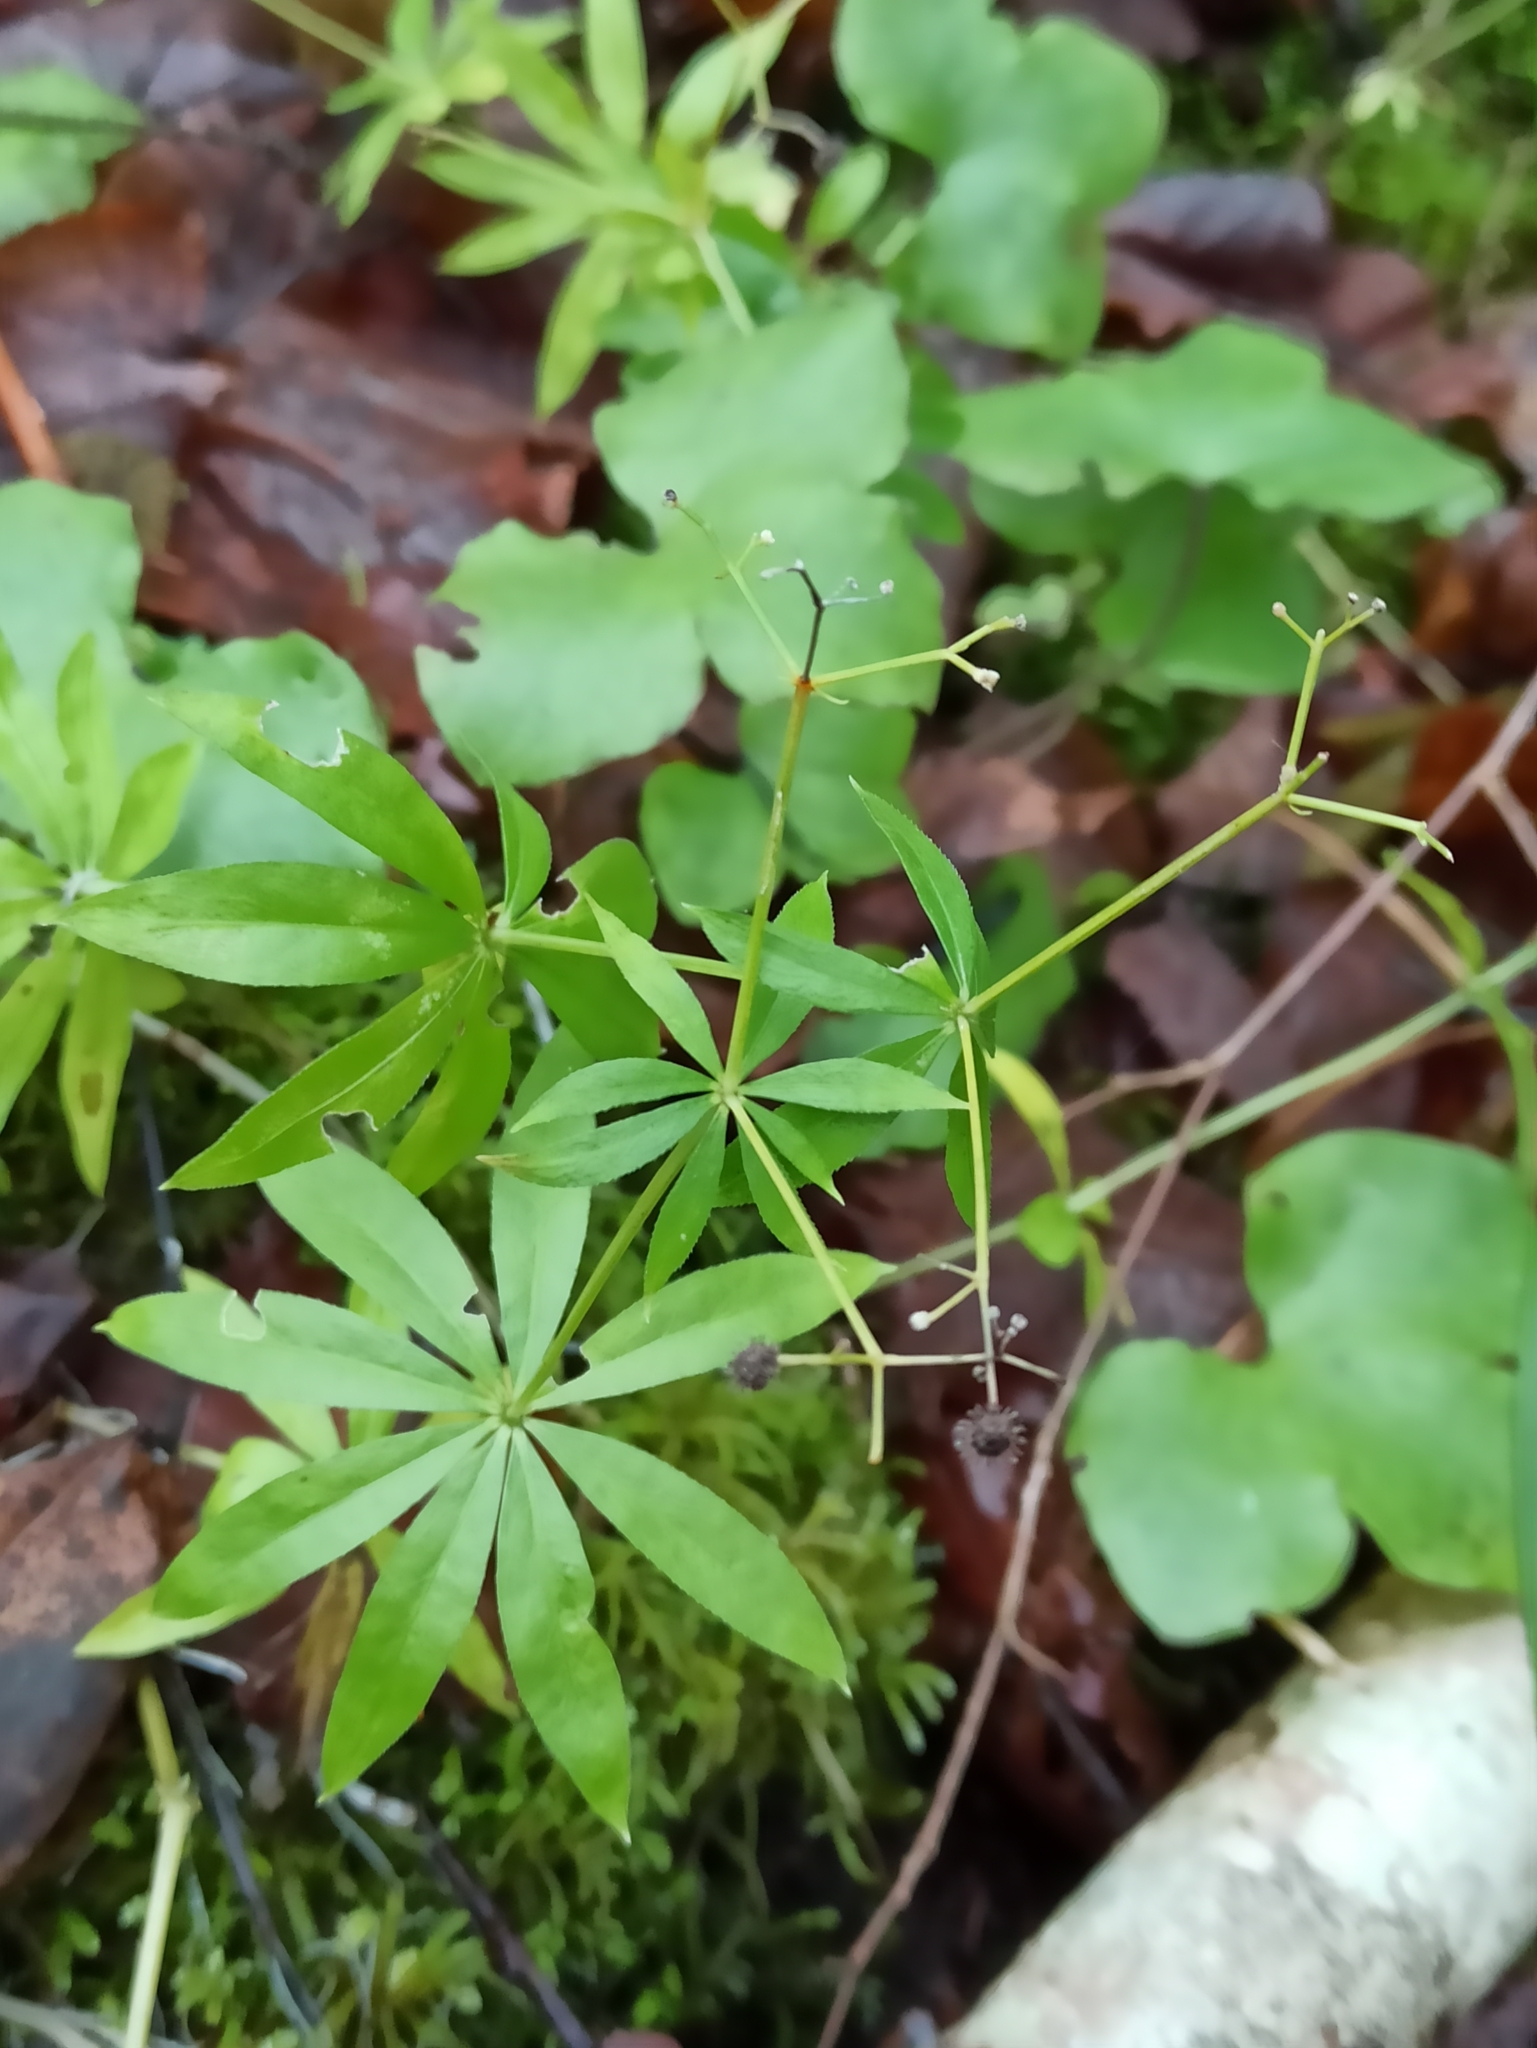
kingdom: Plantae
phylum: Tracheophyta
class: Magnoliopsida
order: Gentianales
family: Rubiaceae
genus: Galium
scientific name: Galium odoratum
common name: Sweet woodruff
